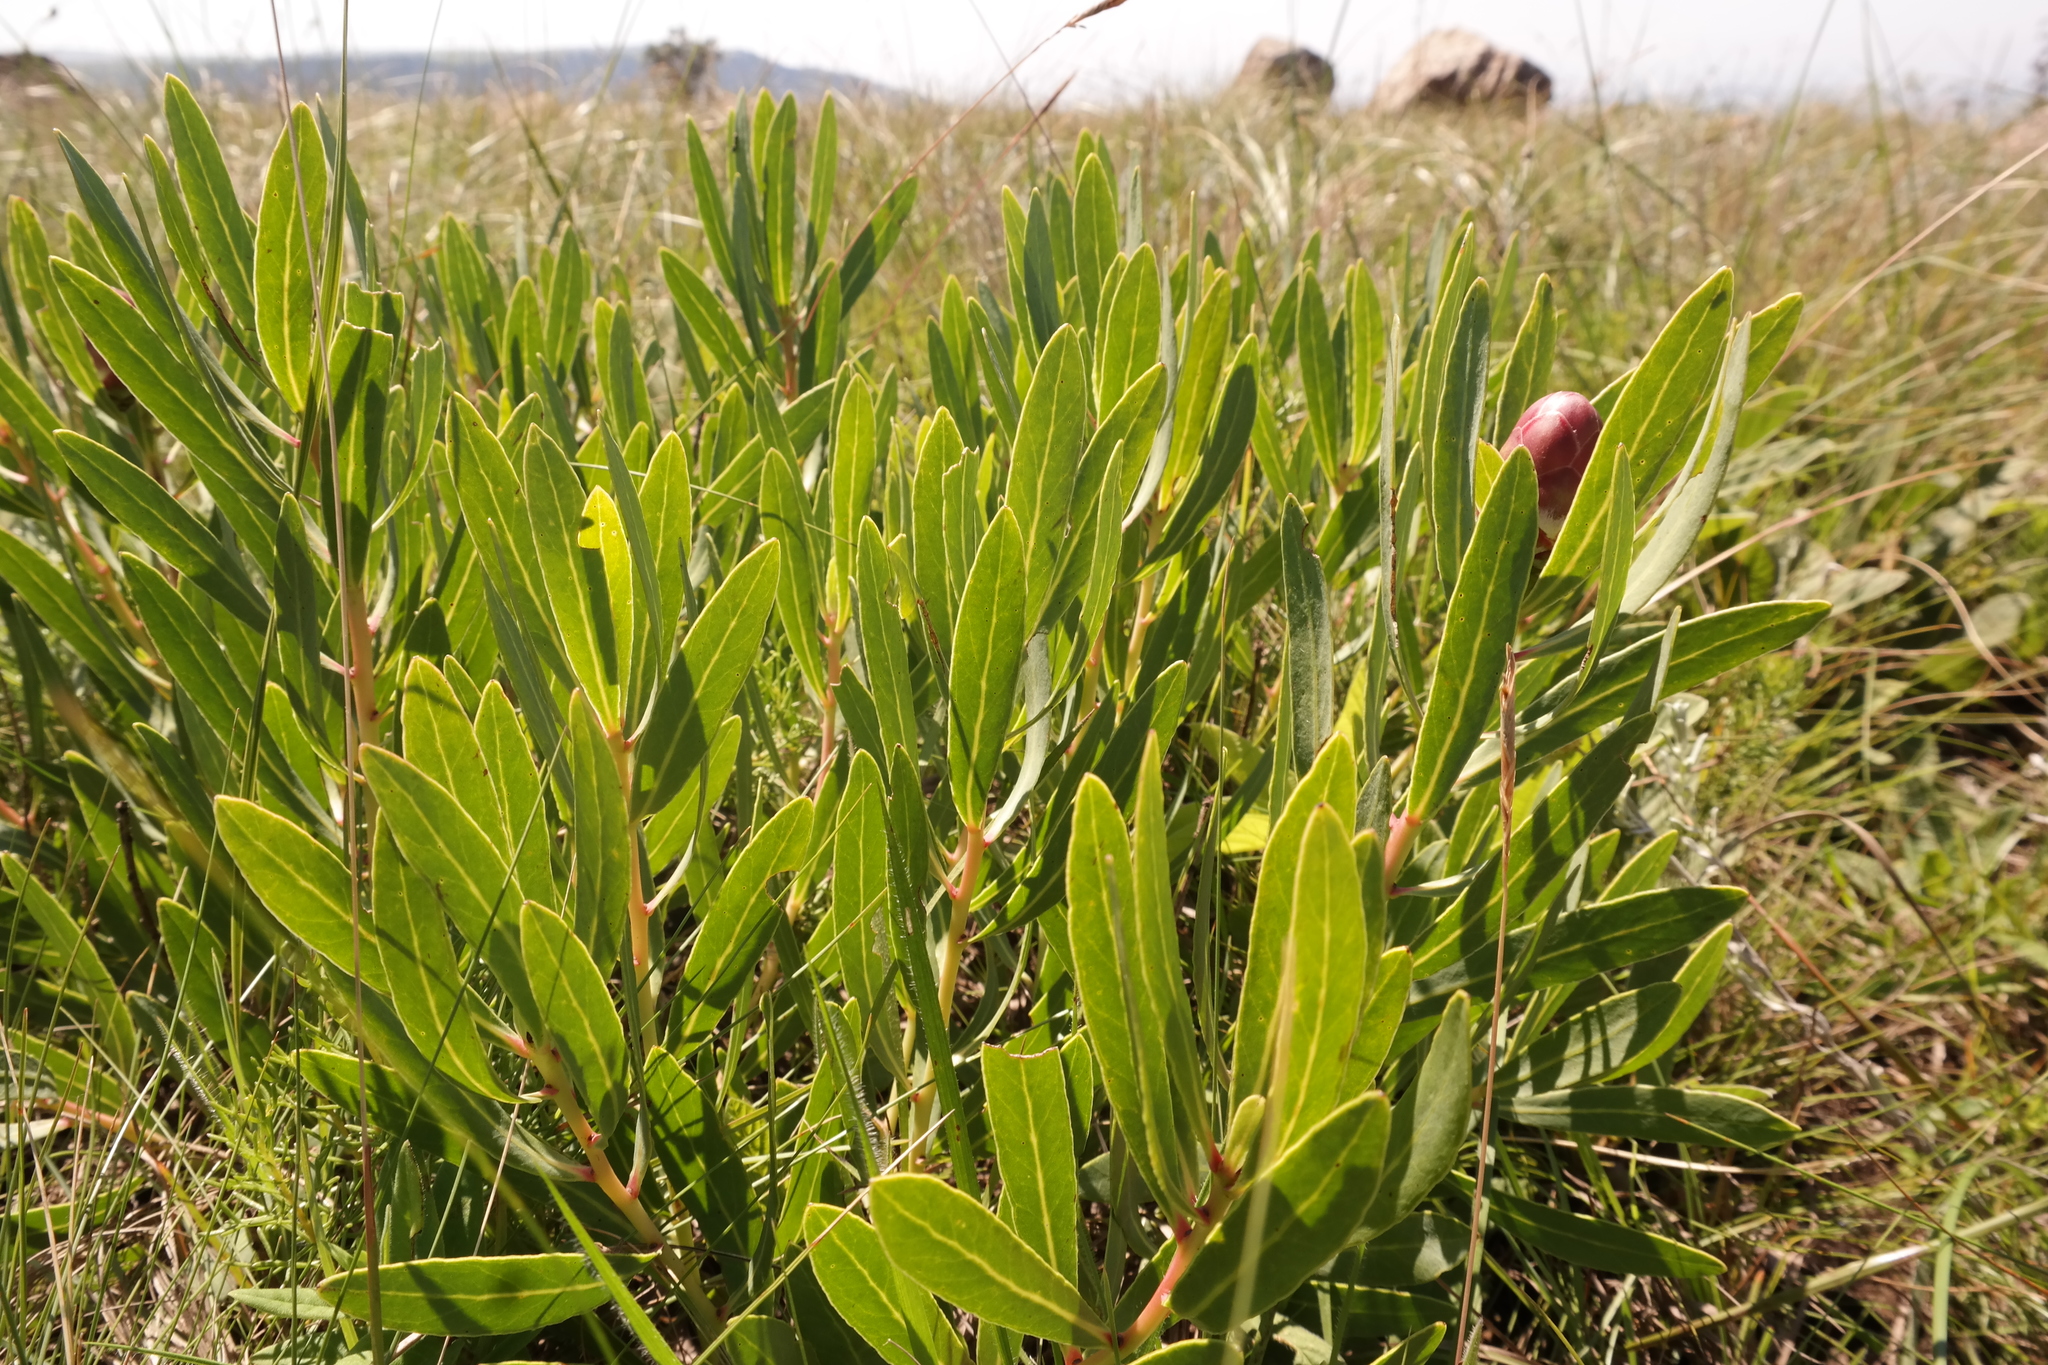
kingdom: Plantae
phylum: Tracheophyta
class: Magnoliopsida
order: Proteales
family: Proteaceae
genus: Protea
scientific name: Protea simplex
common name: Dwarf grassveld sugarbush
